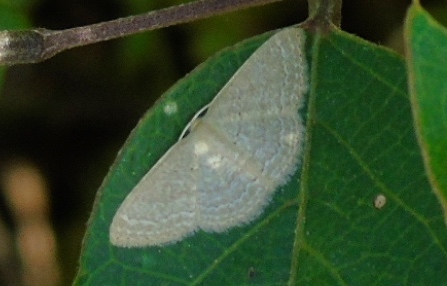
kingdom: Animalia
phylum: Arthropoda
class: Insecta
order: Lepidoptera
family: Geometridae
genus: Pleuroprucha
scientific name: Pleuroprucha
